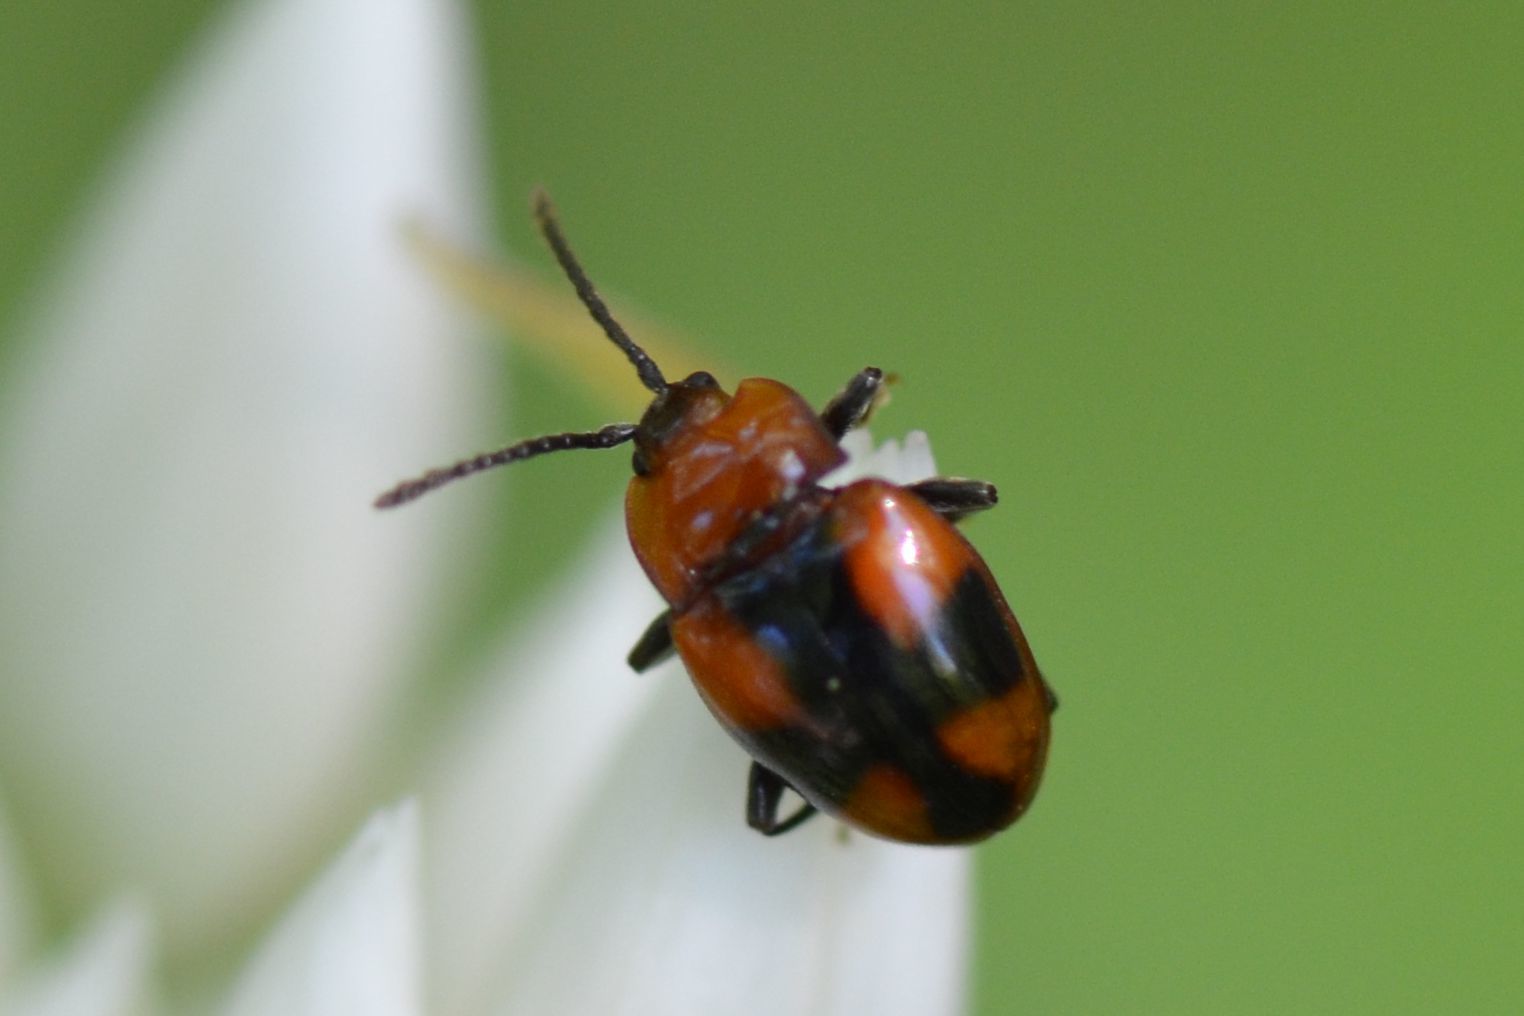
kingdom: Animalia
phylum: Arthropoda
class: Insecta
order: Coleoptera
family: Endomychidae
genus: Mycetina
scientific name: Mycetina cruciata
